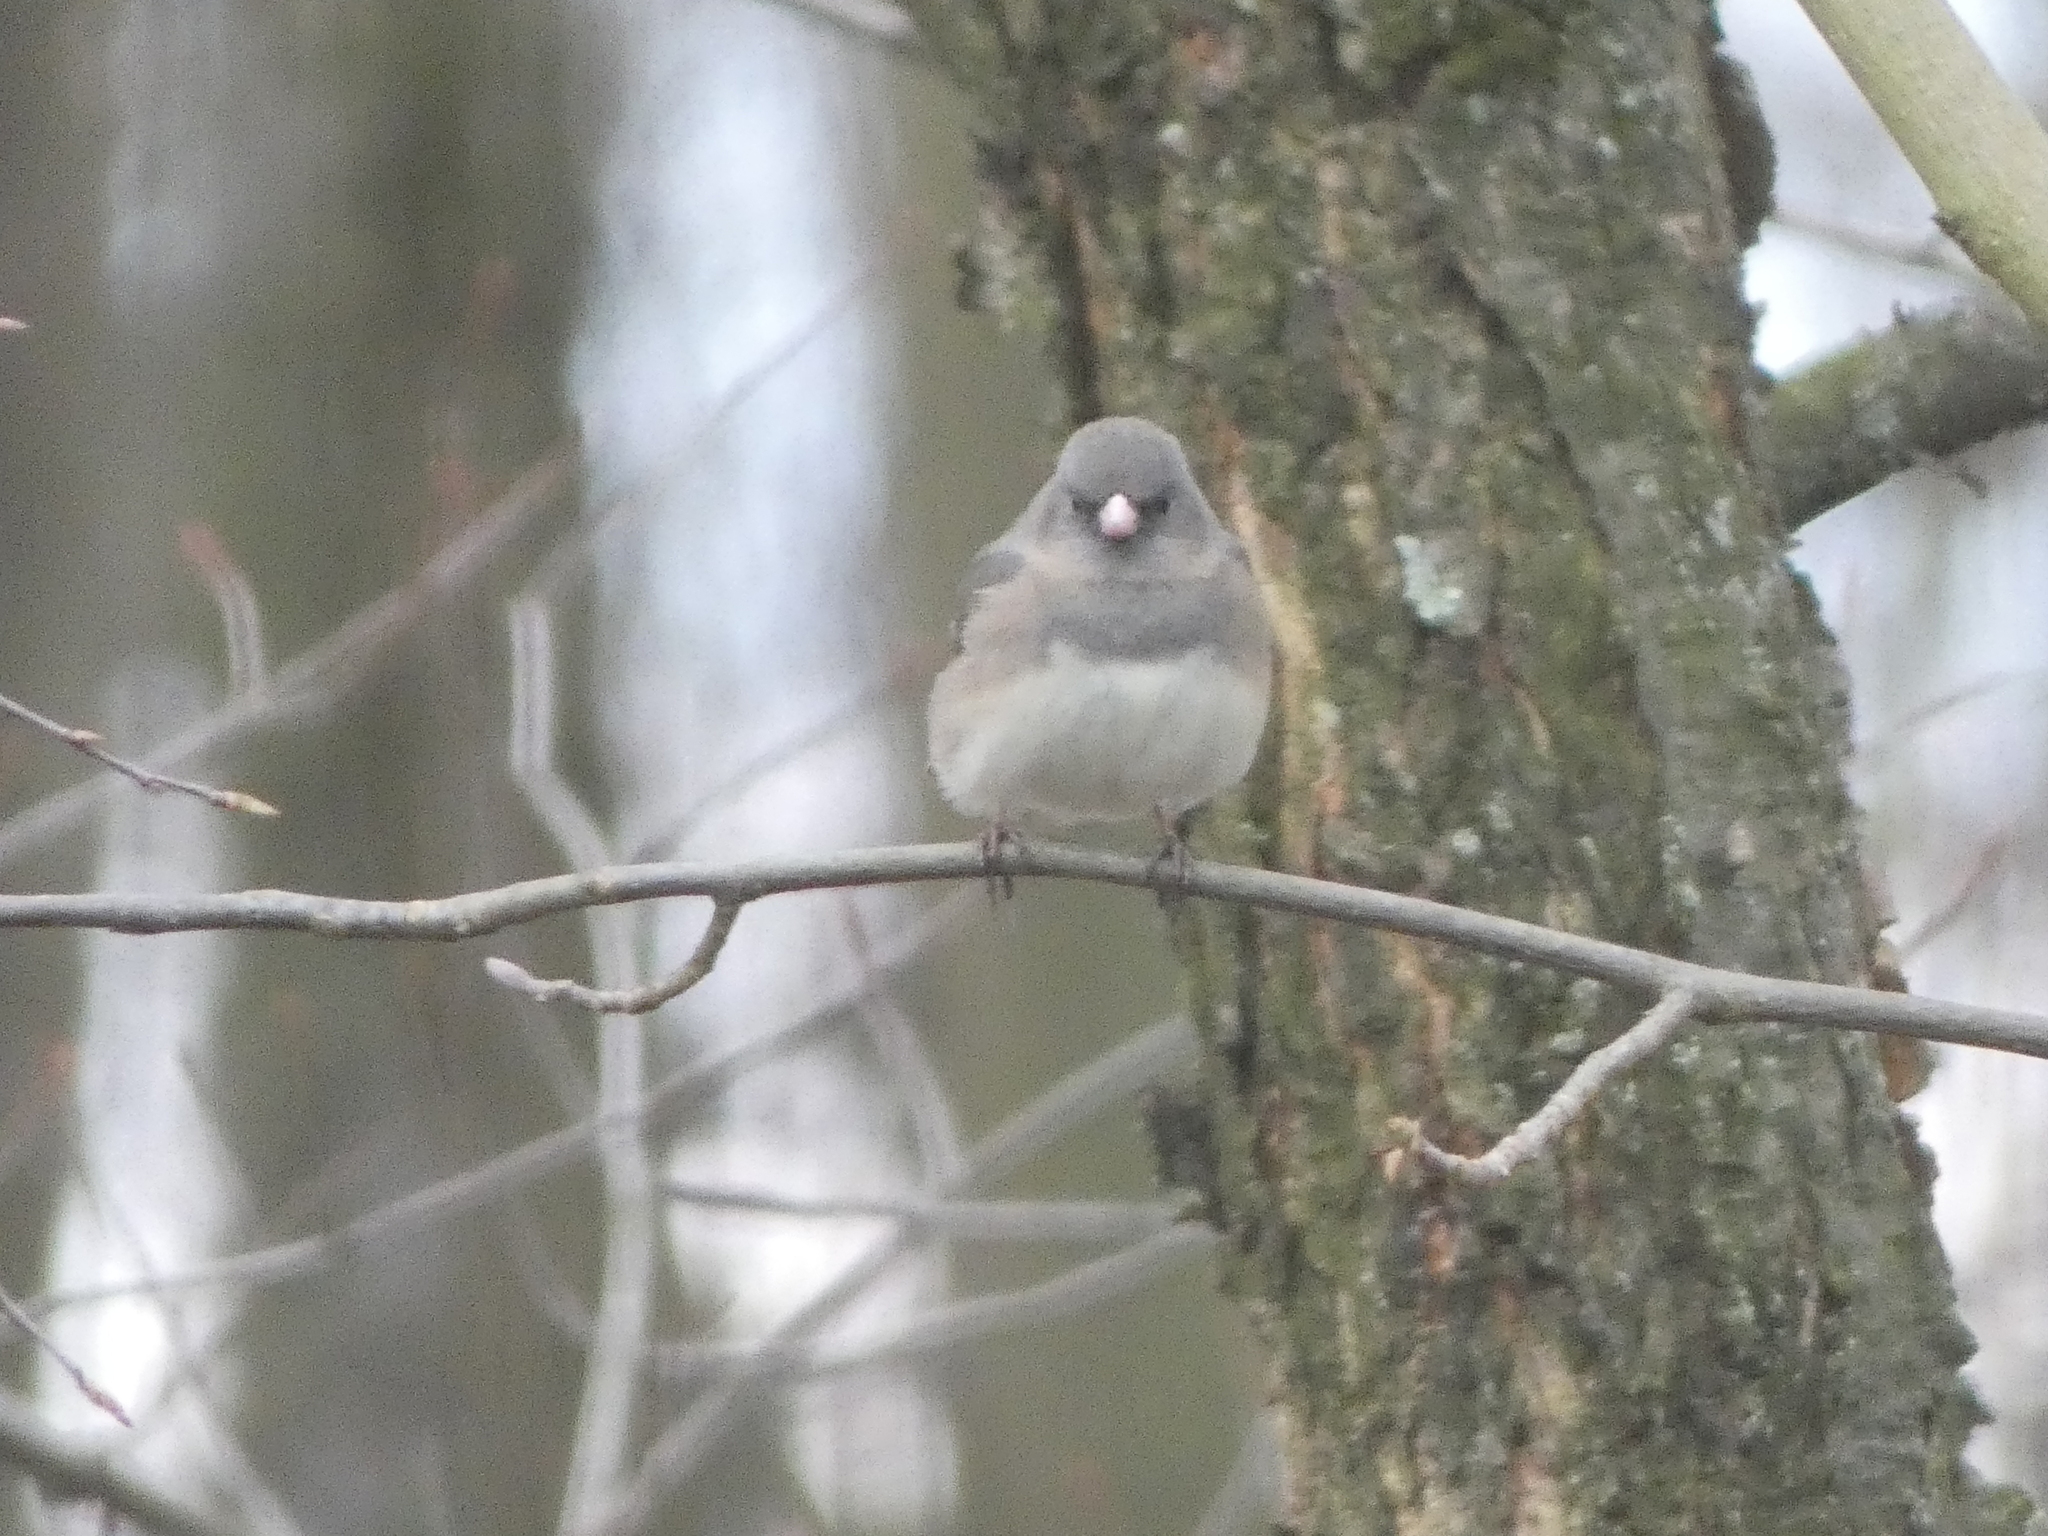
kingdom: Animalia
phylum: Chordata
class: Aves
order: Passeriformes
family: Passerellidae
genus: Junco
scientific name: Junco hyemalis
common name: Dark-eyed junco
